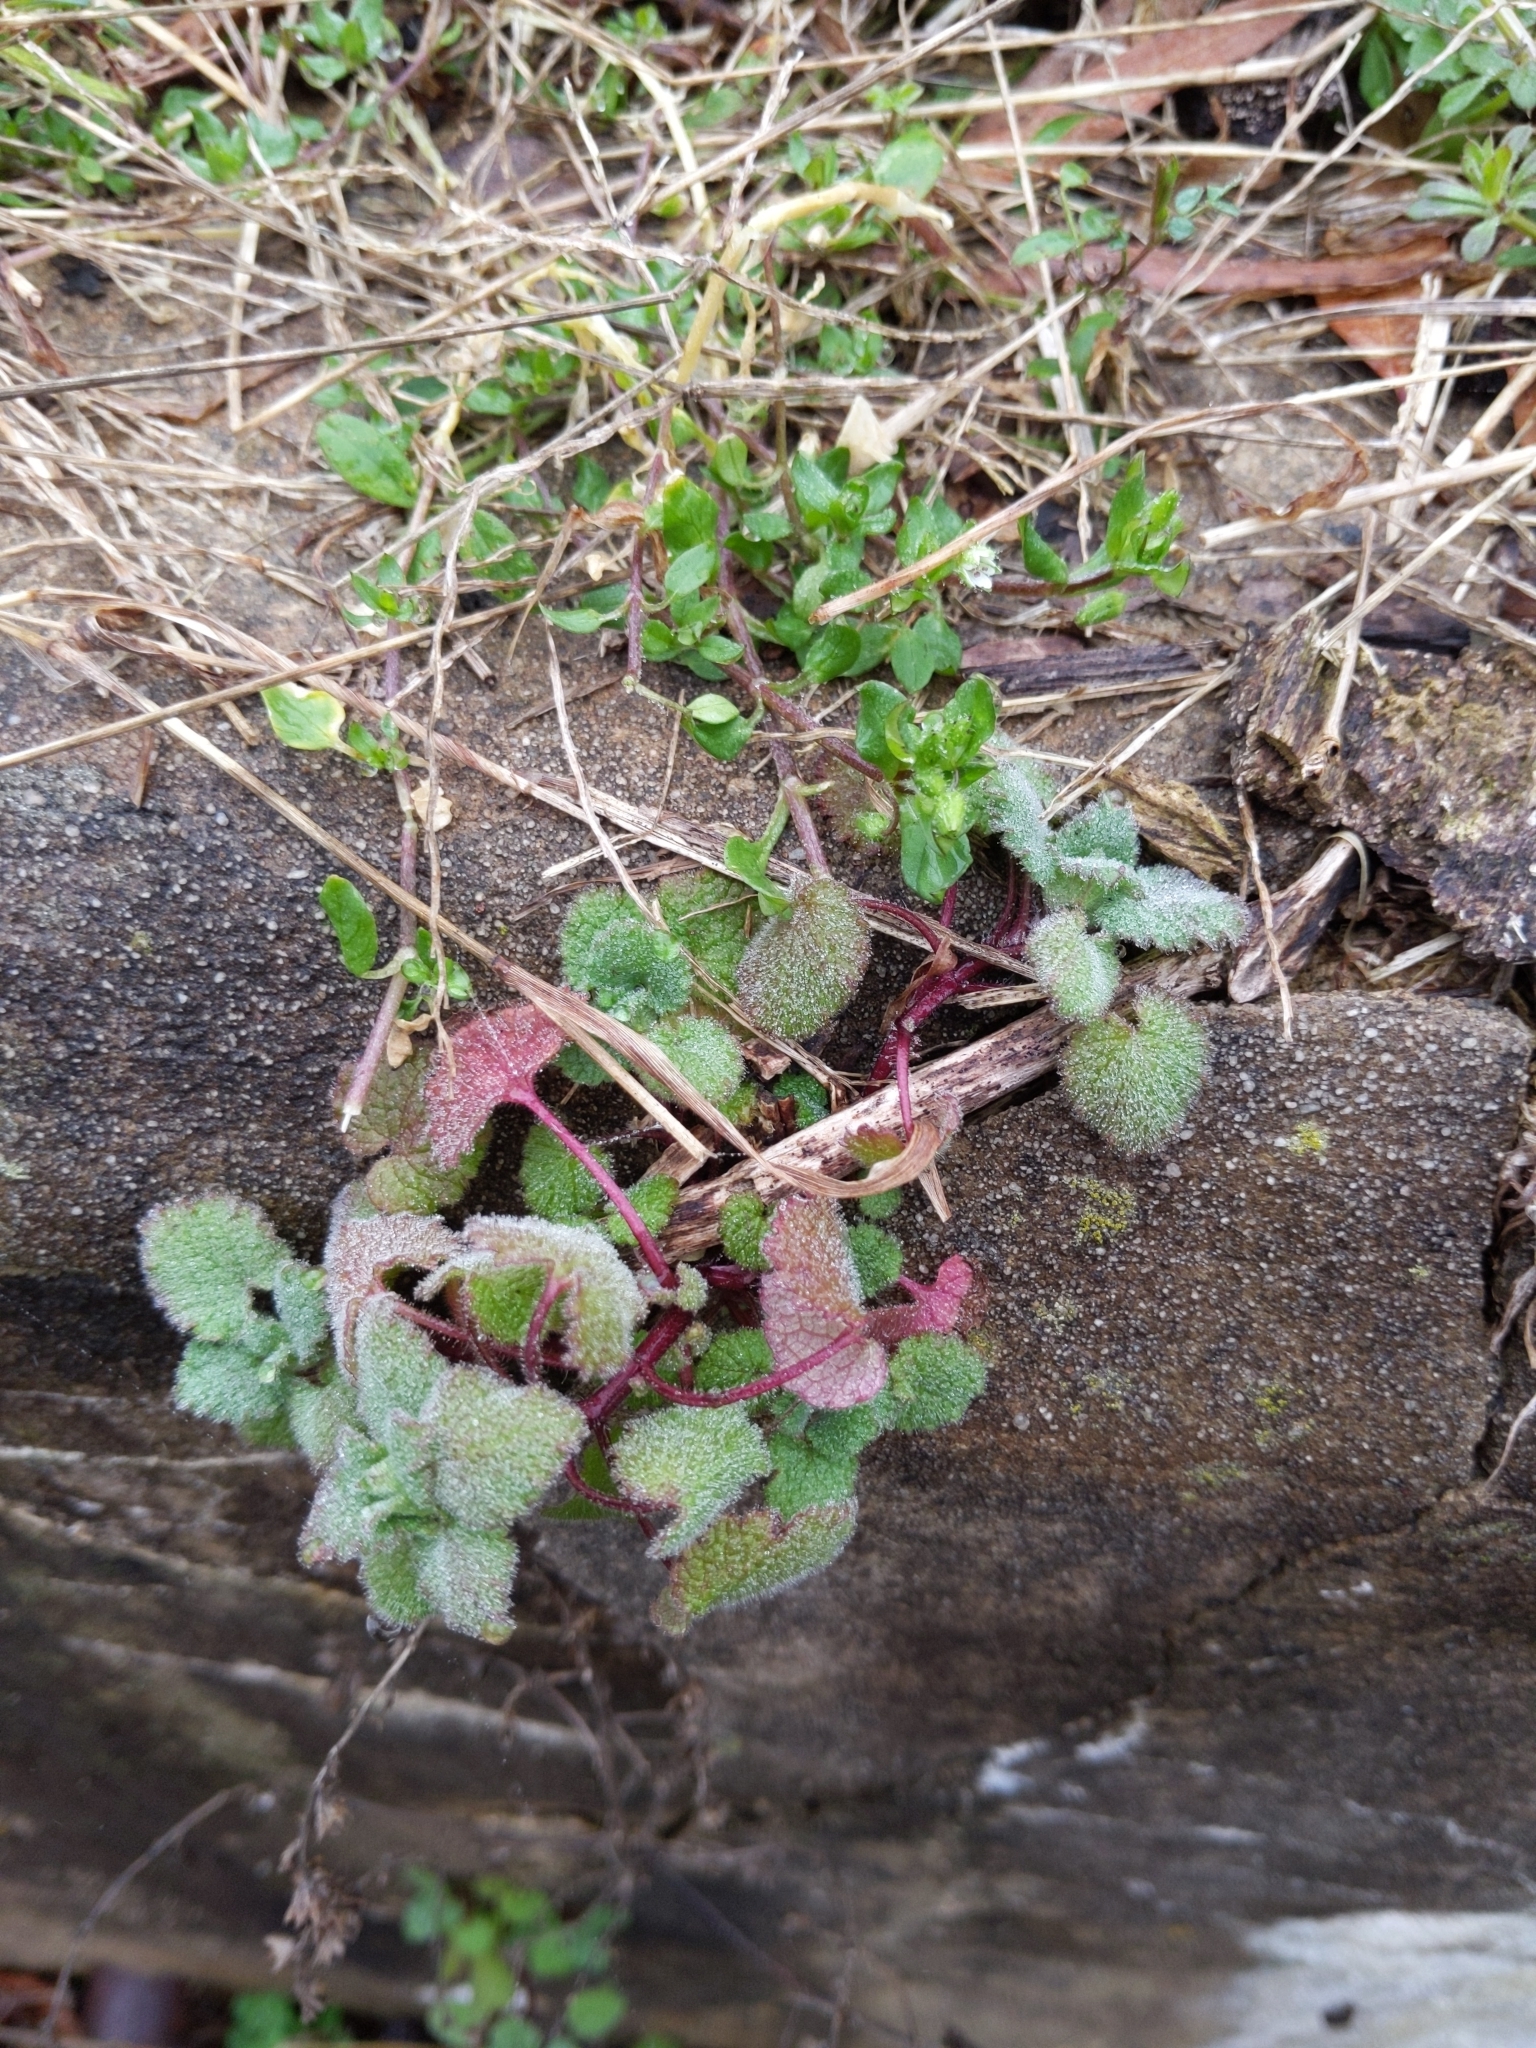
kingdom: Plantae
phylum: Tracheophyta
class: Magnoliopsida
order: Lamiales
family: Lamiaceae
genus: Lamium
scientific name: Lamium purpureum
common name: Red dead-nettle
